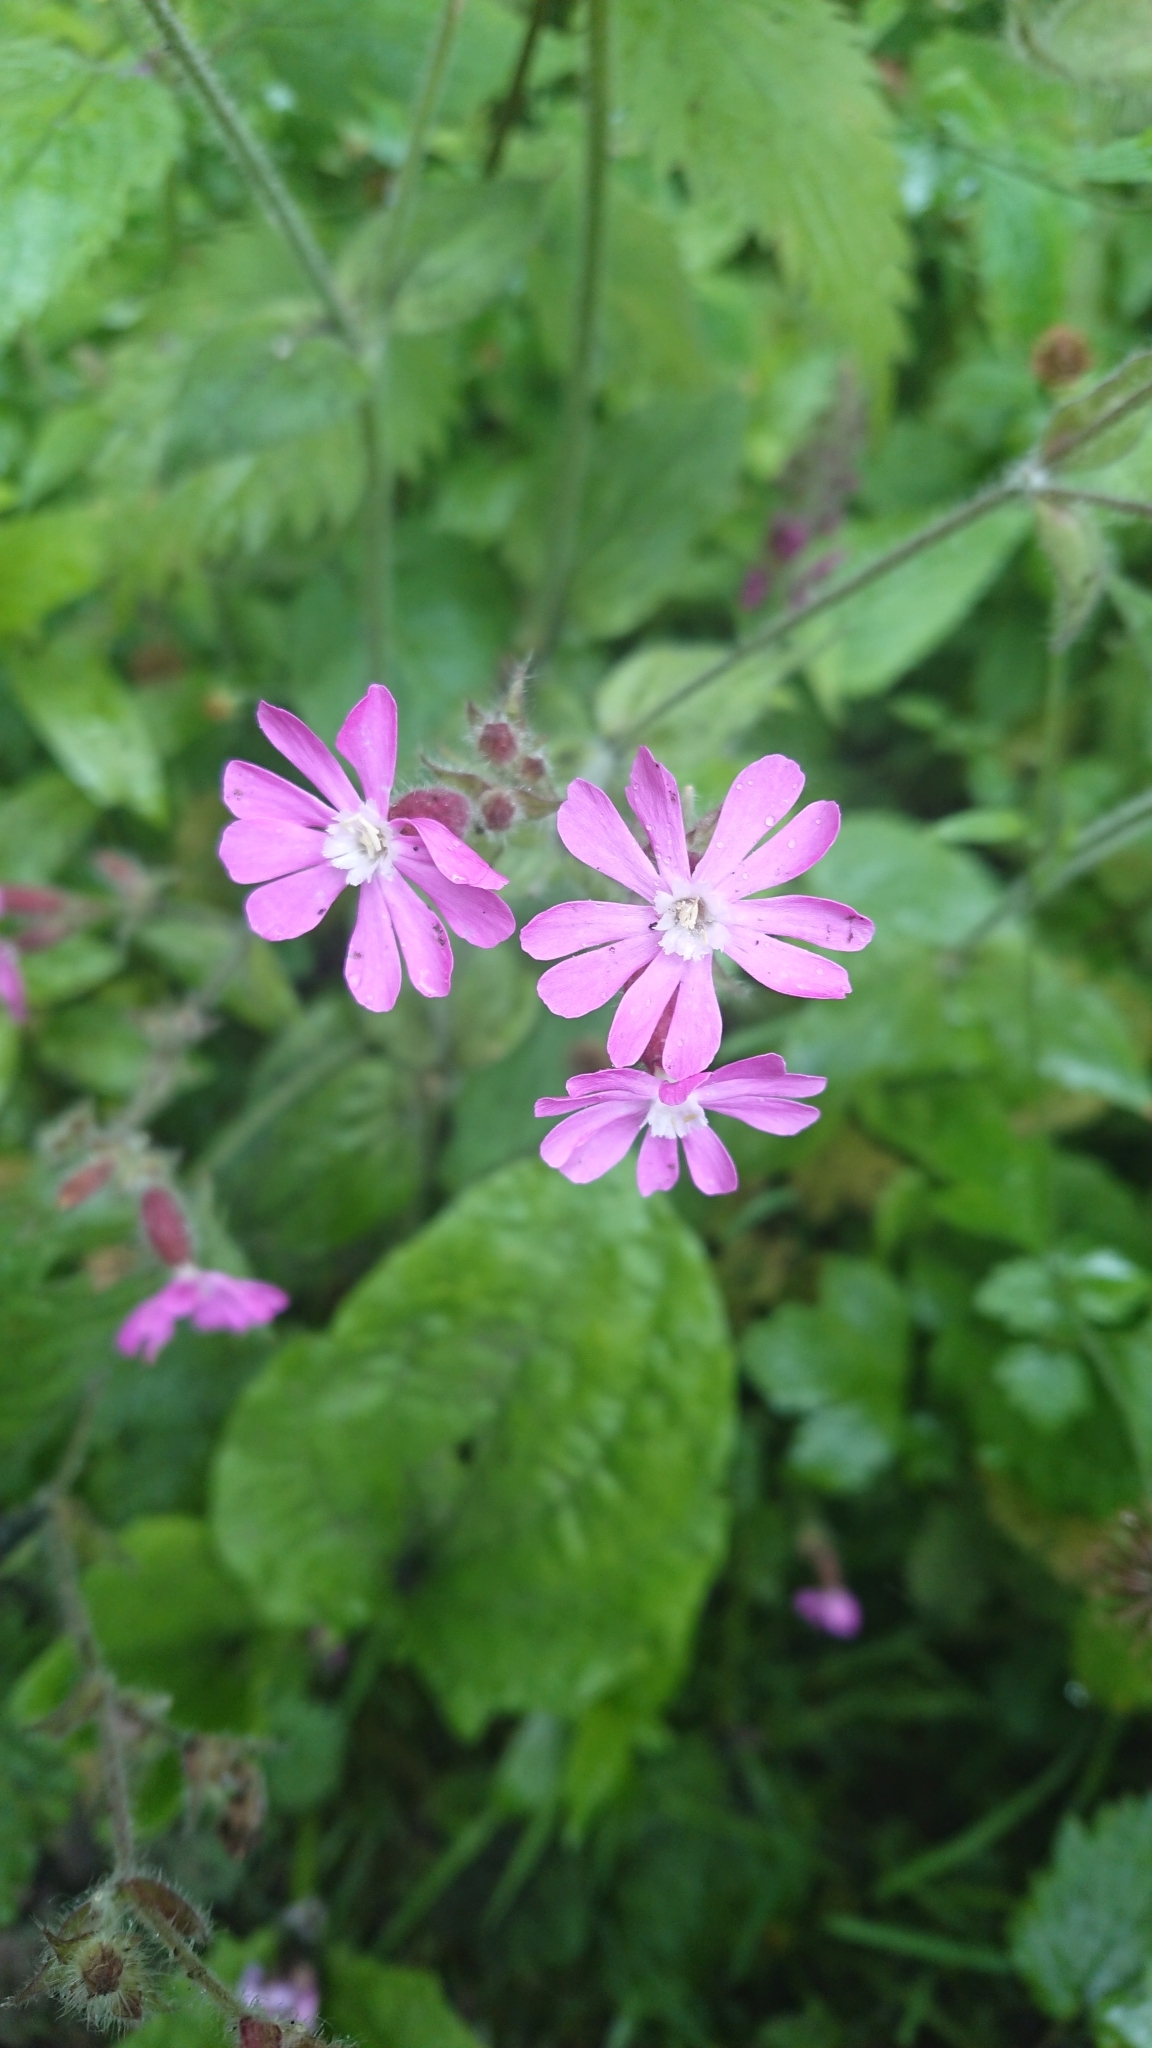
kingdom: Plantae
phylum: Tracheophyta
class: Magnoliopsida
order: Caryophyllales
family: Caryophyllaceae
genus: Silene
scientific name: Silene dioica
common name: Red campion
